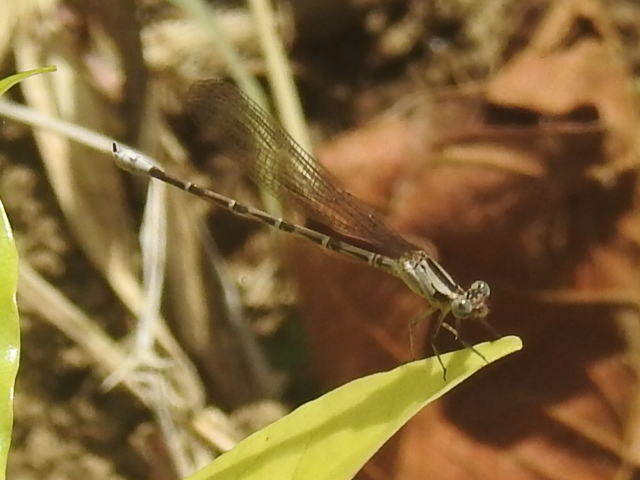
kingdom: Animalia
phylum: Arthropoda
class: Insecta
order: Odonata
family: Coenagrionidae
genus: Argia
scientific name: Argia elongata
